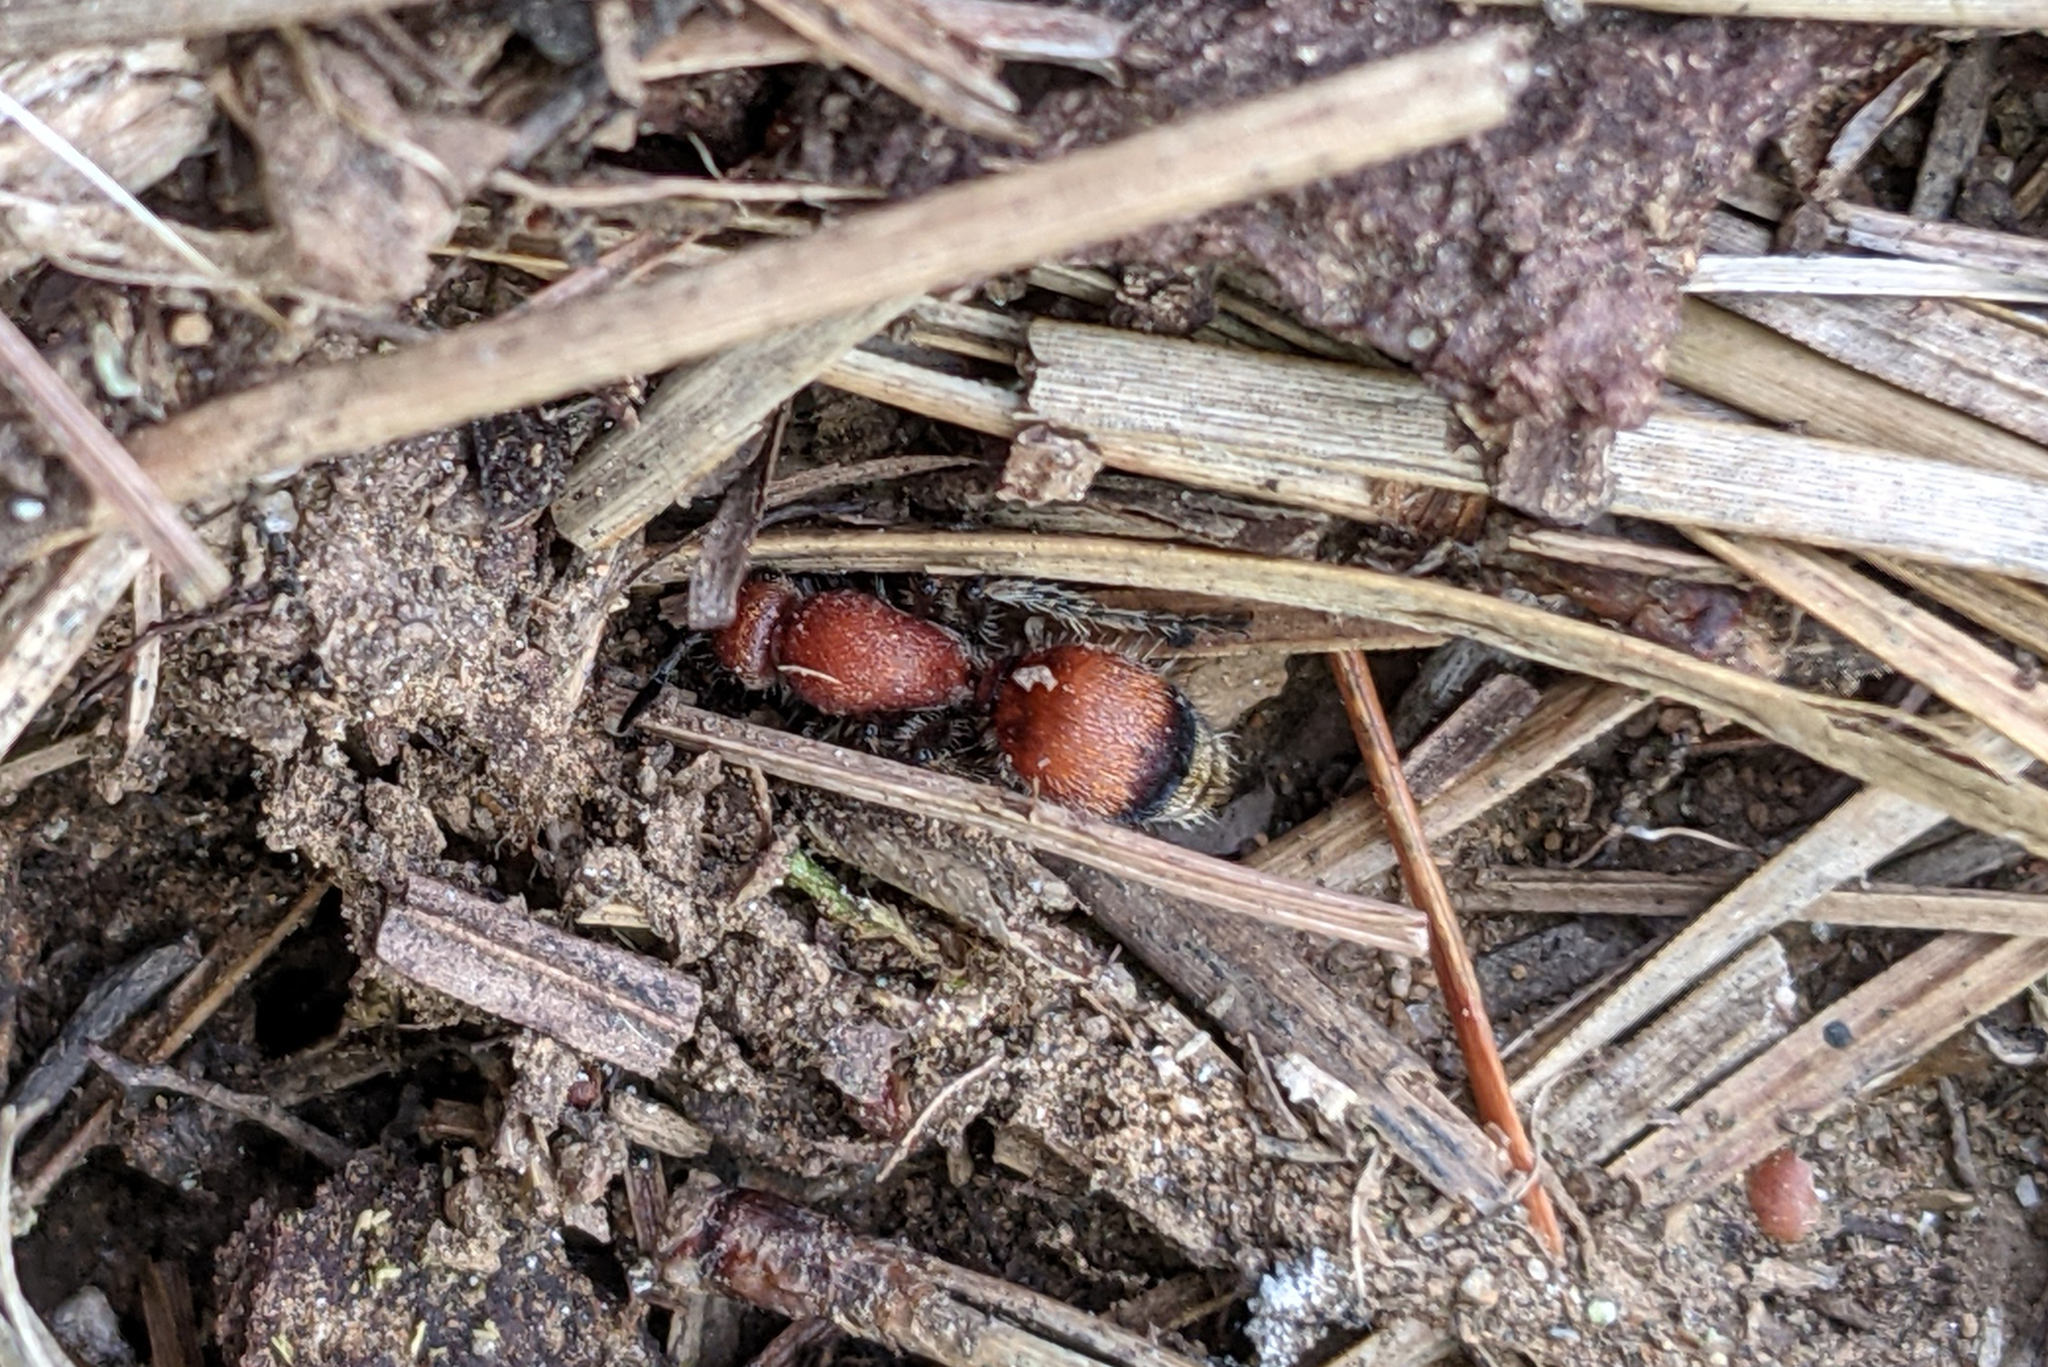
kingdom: Animalia
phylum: Arthropoda
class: Insecta
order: Hymenoptera
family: Mutillidae
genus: Dasymutilla
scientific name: Dasymutilla
